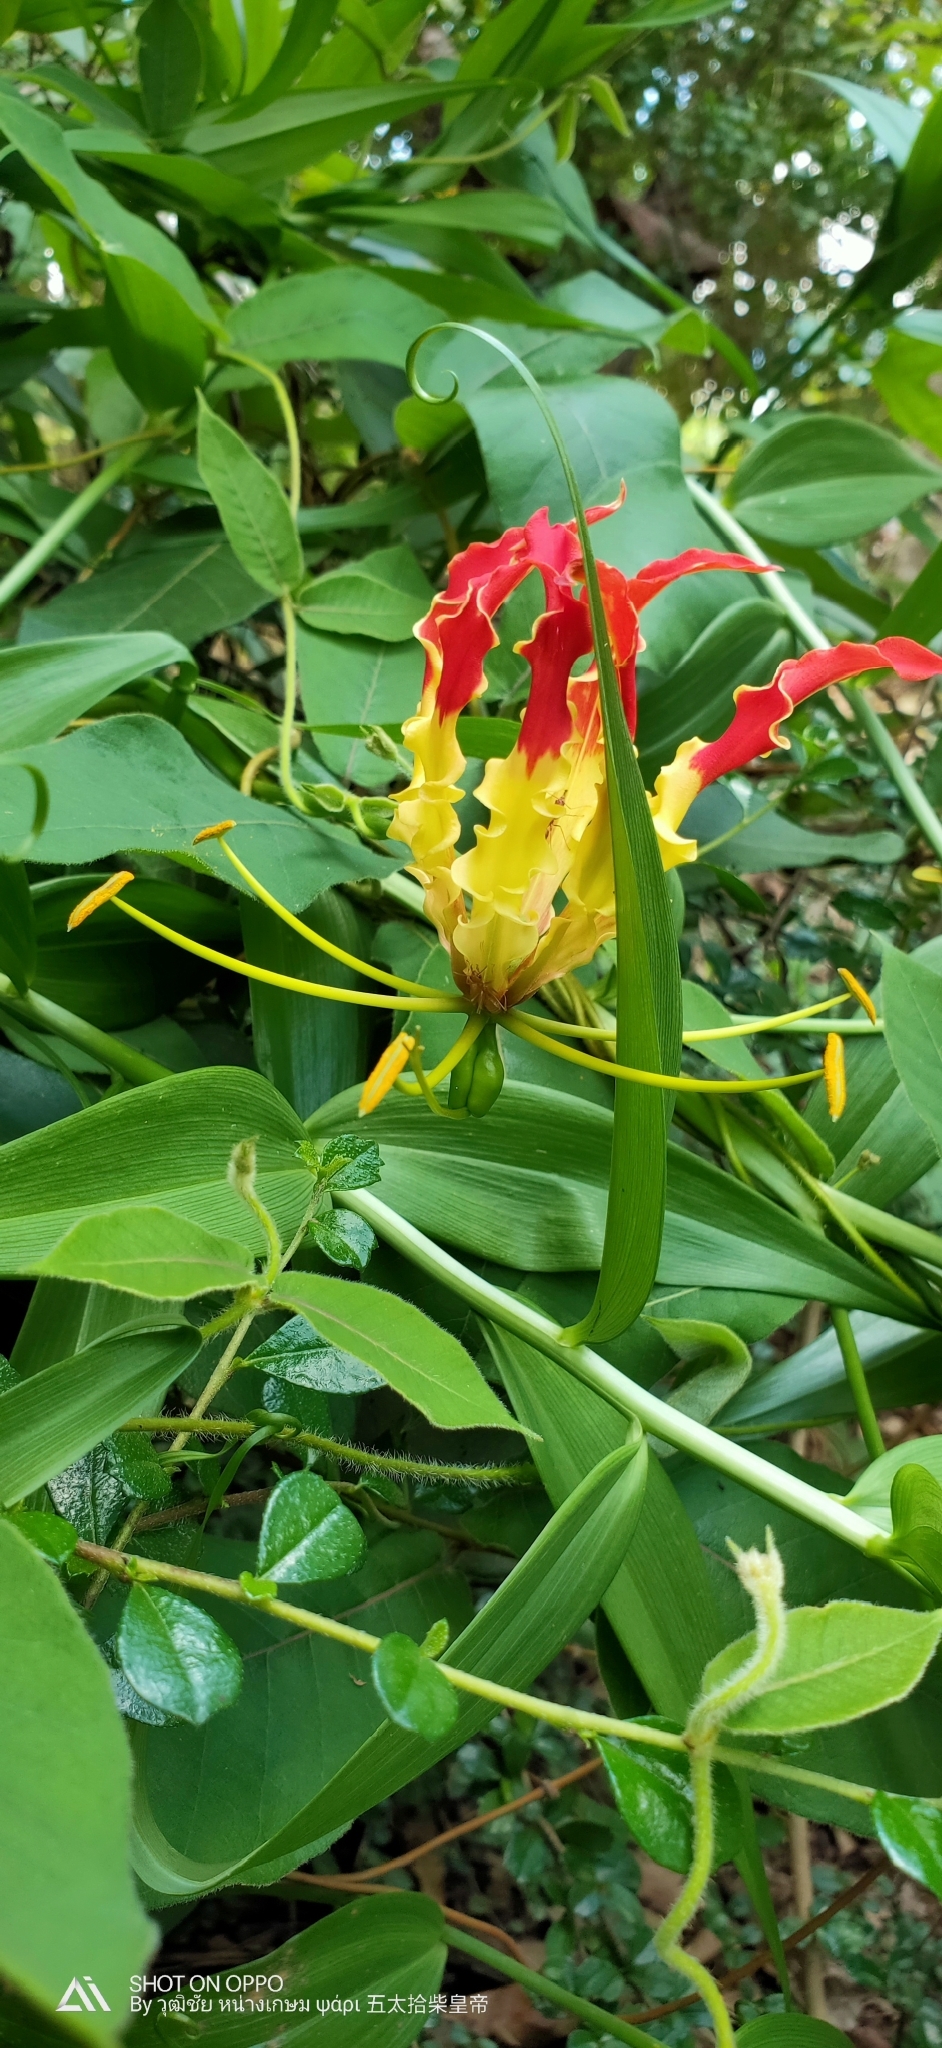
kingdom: Plantae
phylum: Tracheophyta
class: Liliopsida
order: Liliales
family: Colchicaceae
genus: Gloriosa
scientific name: Gloriosa superba
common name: Flame lily
